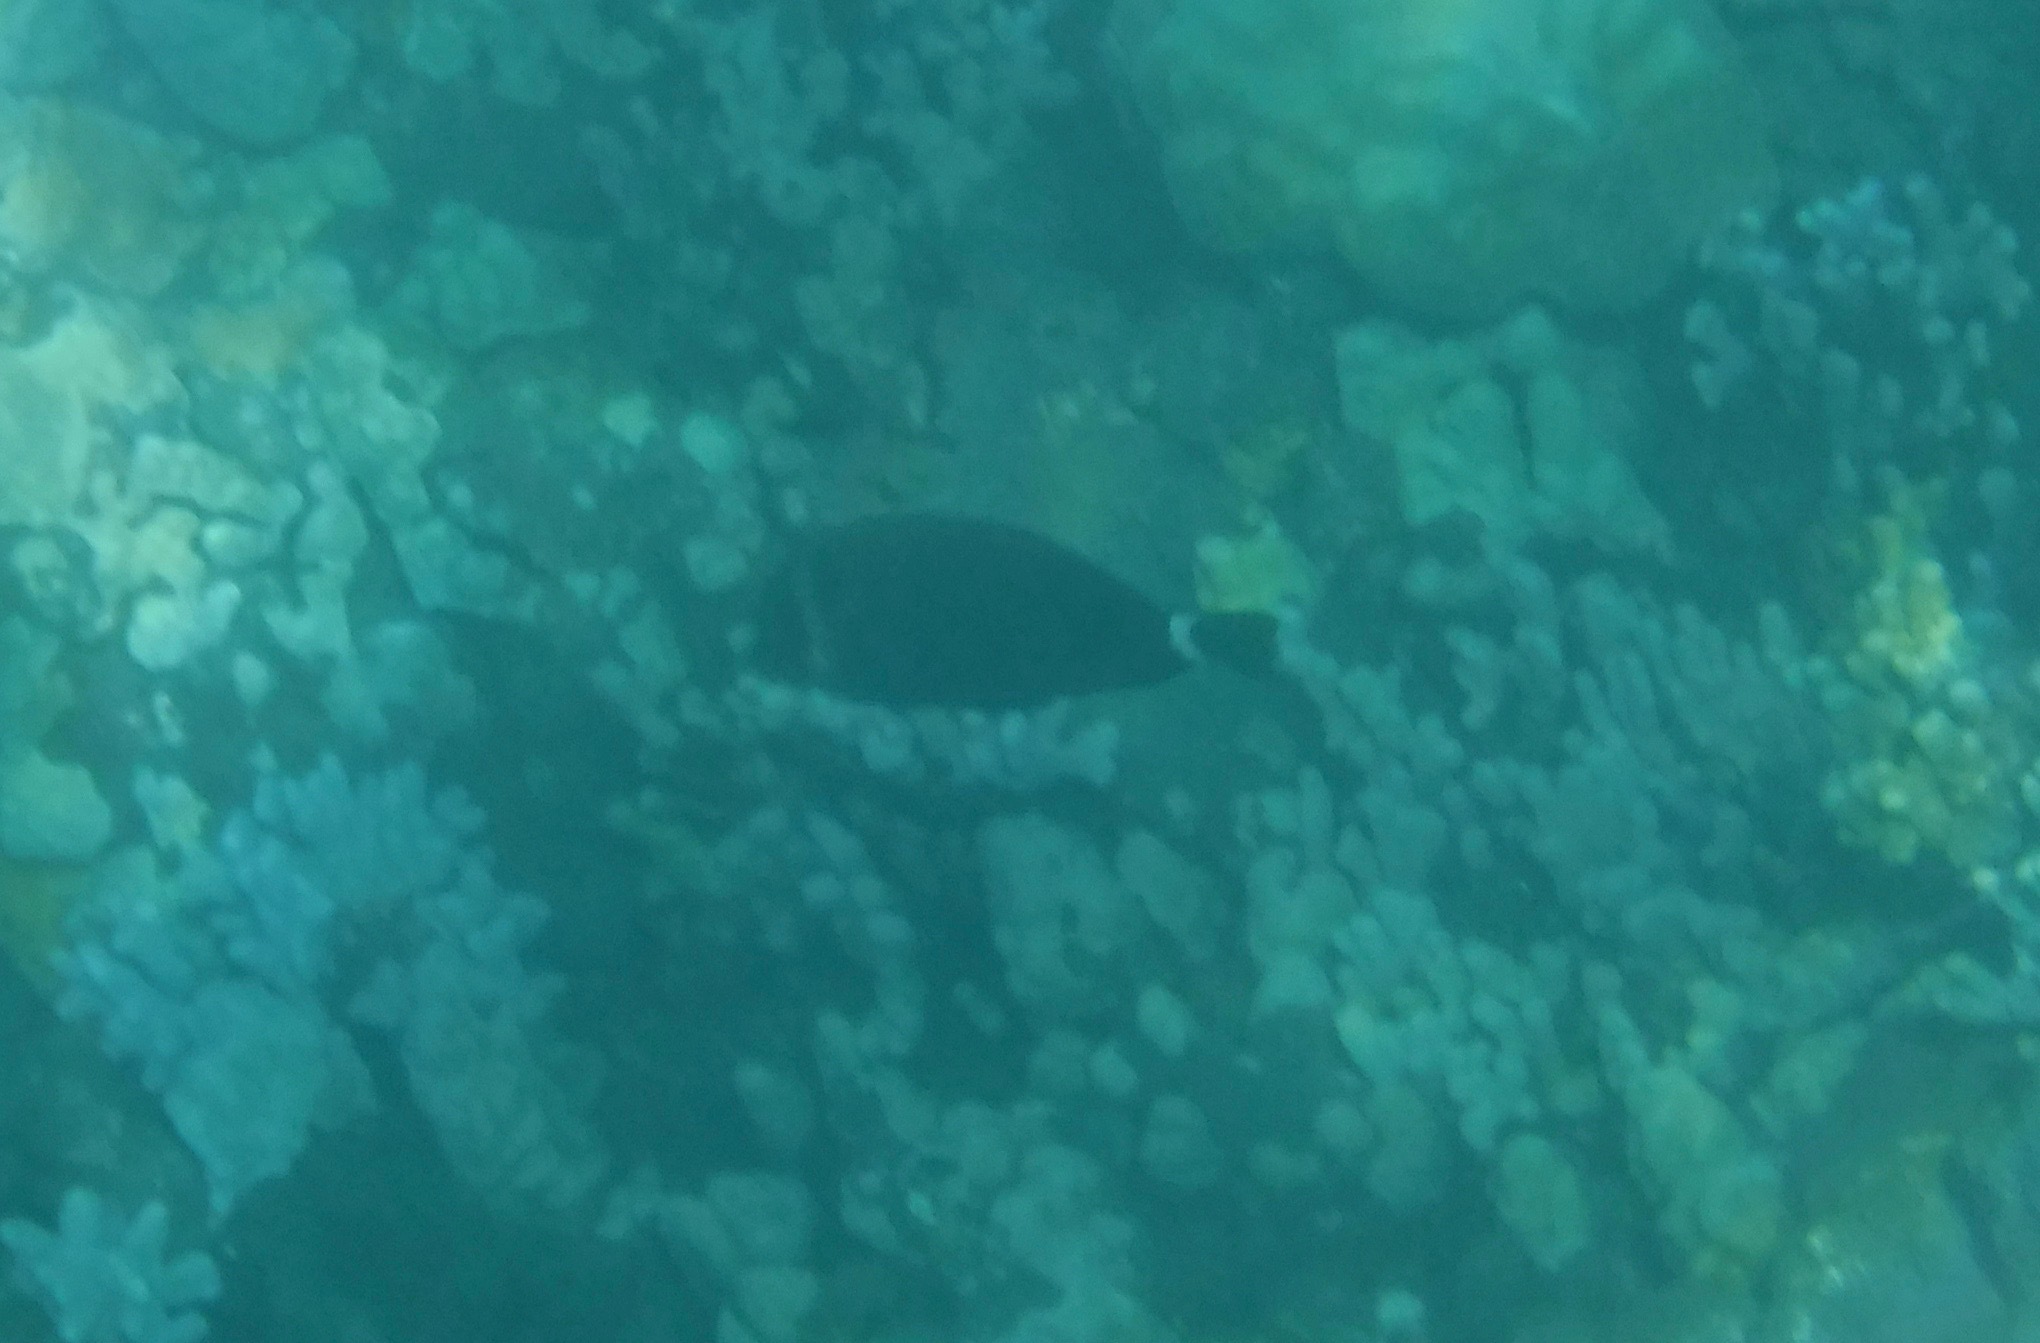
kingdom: Animalia
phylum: Chordata
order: Perciformes
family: Acanthuridae
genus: Acanthurus
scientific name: Acanthurus leucopareius
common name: Head-band surgeonfish
